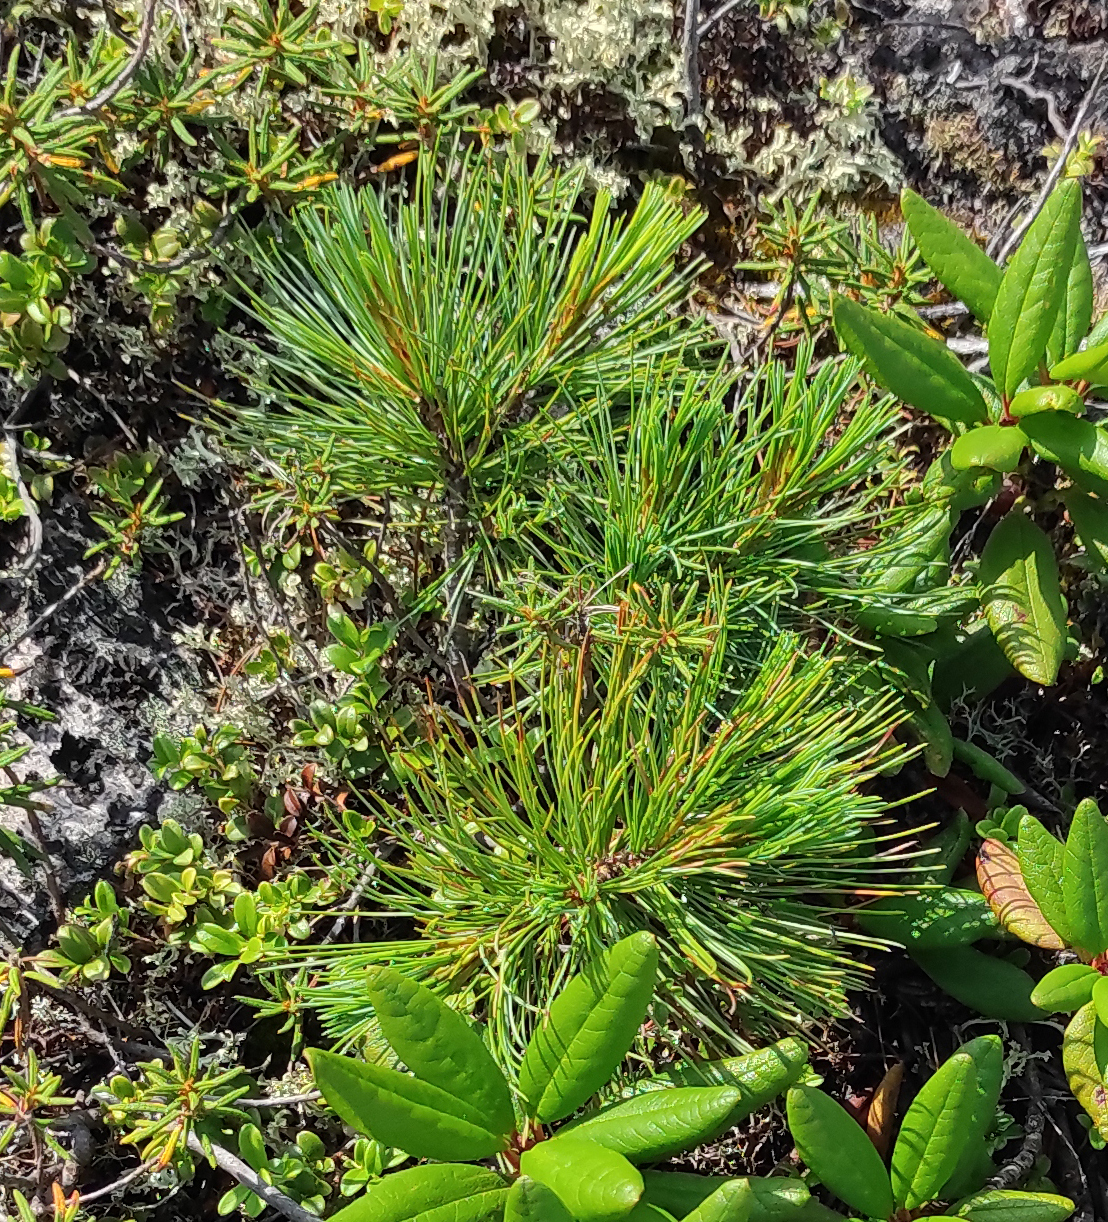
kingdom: Plantae
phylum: Tracheophyta
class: Magnoliopsida
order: Ericales
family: Ericaceae
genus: Rhododendron
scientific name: Rhododendron tomentosum
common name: Marsh labrador tea
